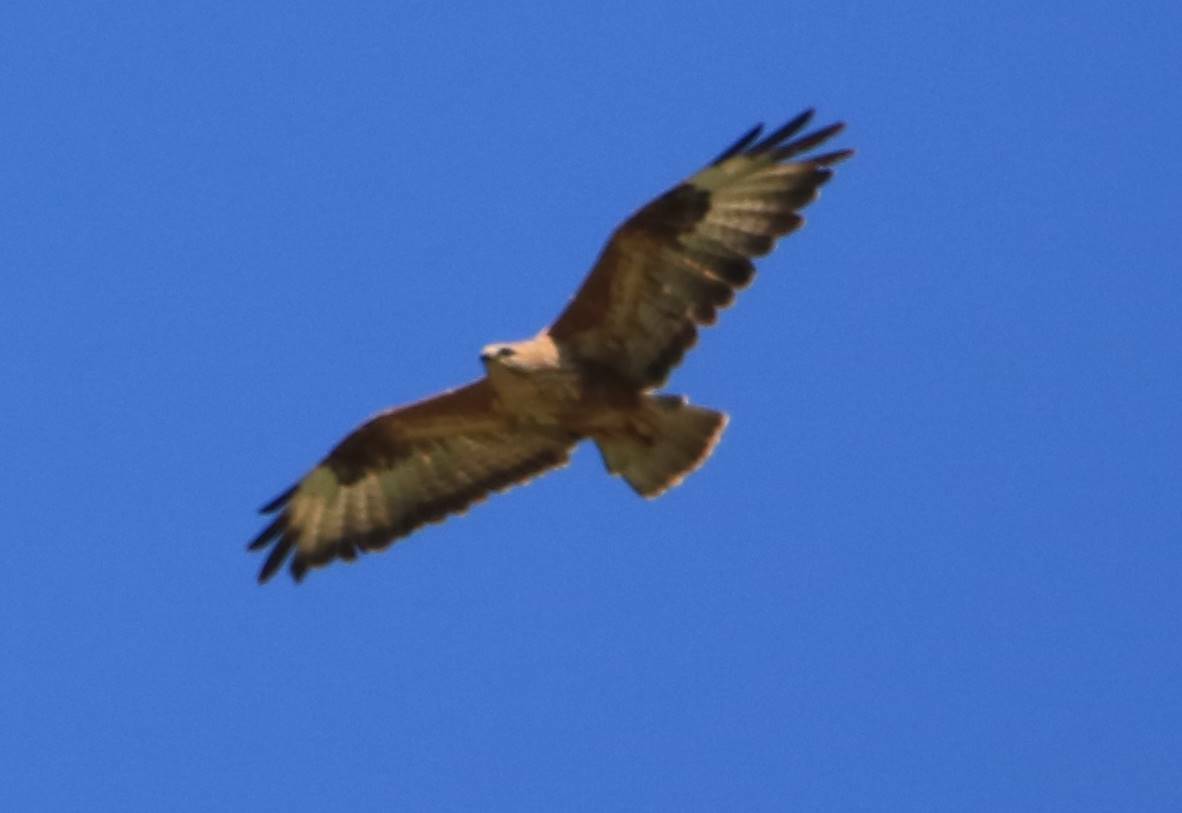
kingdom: Animalia
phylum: Chordata
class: Aves
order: Accipitriformes
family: Accipitridae
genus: Buteo
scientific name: Buteo rufinus
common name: Long-legged buzzard
